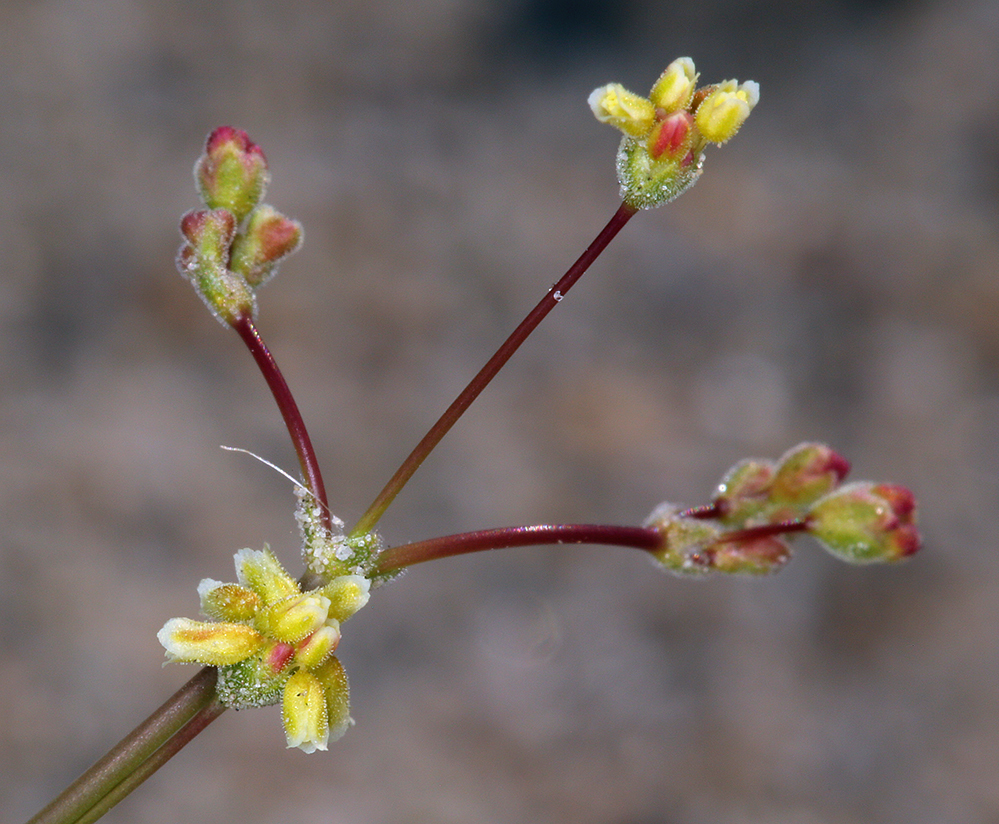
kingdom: Plantae
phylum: Tracheophyta
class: Magnoliopsida
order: Caryophyllales
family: Polygonaceae
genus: Eriogonum
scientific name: Eriogonum pusillum
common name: Yellow turbans
